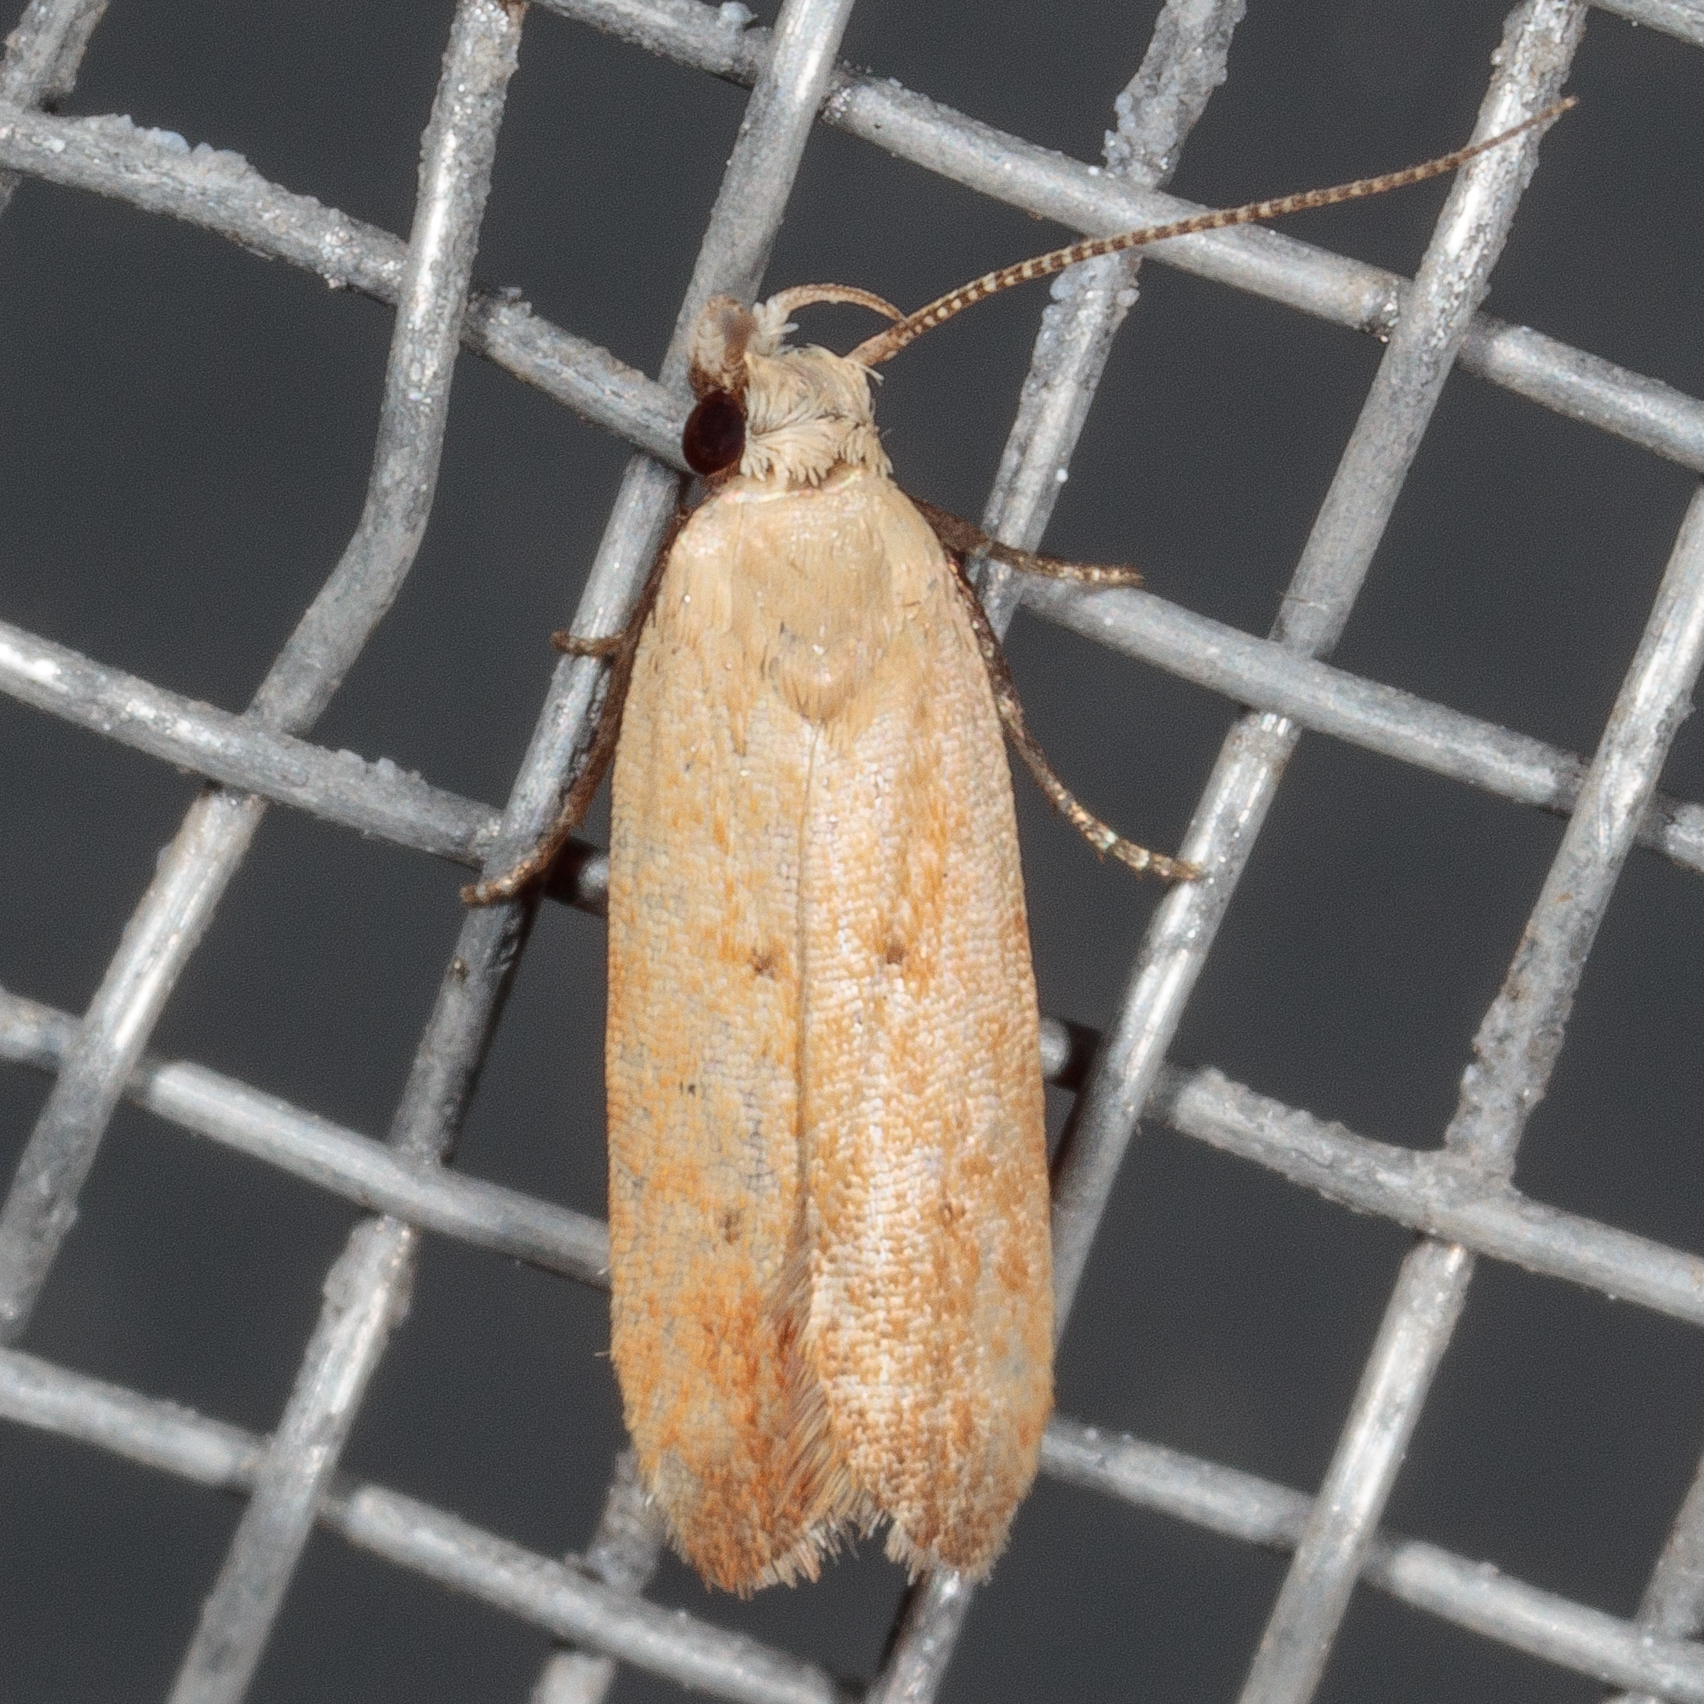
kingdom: Animalia
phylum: Arthropoda
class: Insecta
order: Lepidoptera
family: Gelechiidae
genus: Anacampsis
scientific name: Anacampsis fullonella
